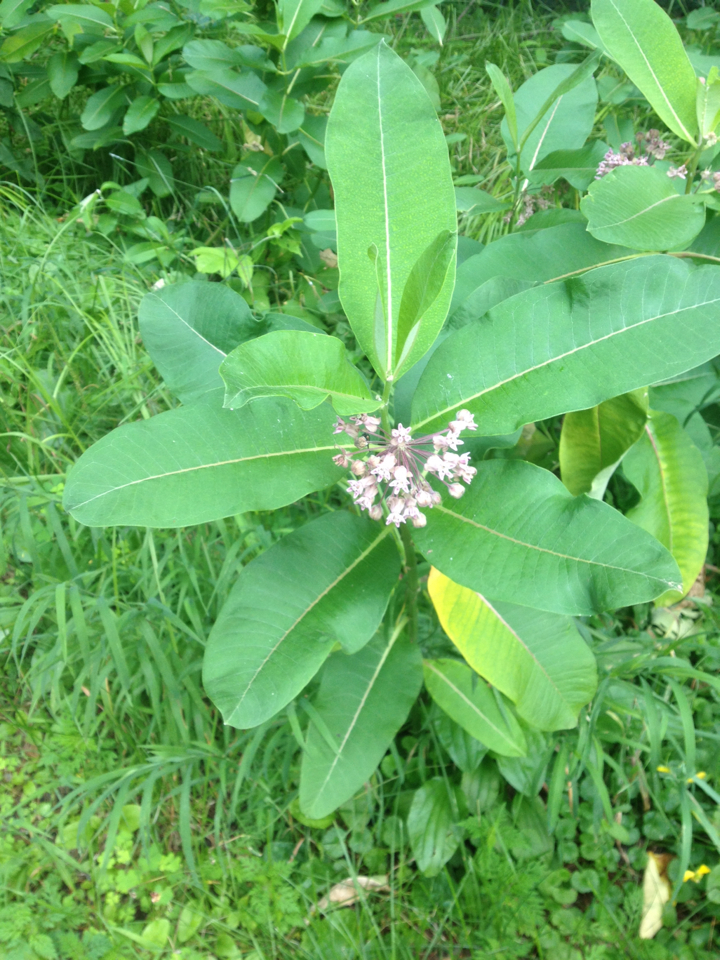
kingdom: Plantae
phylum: Tracheophyta
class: Magnoliopsida
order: Gentianales
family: Apocynaceae
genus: Asclepias
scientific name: Asclepias syriaca
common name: Common milkweed
